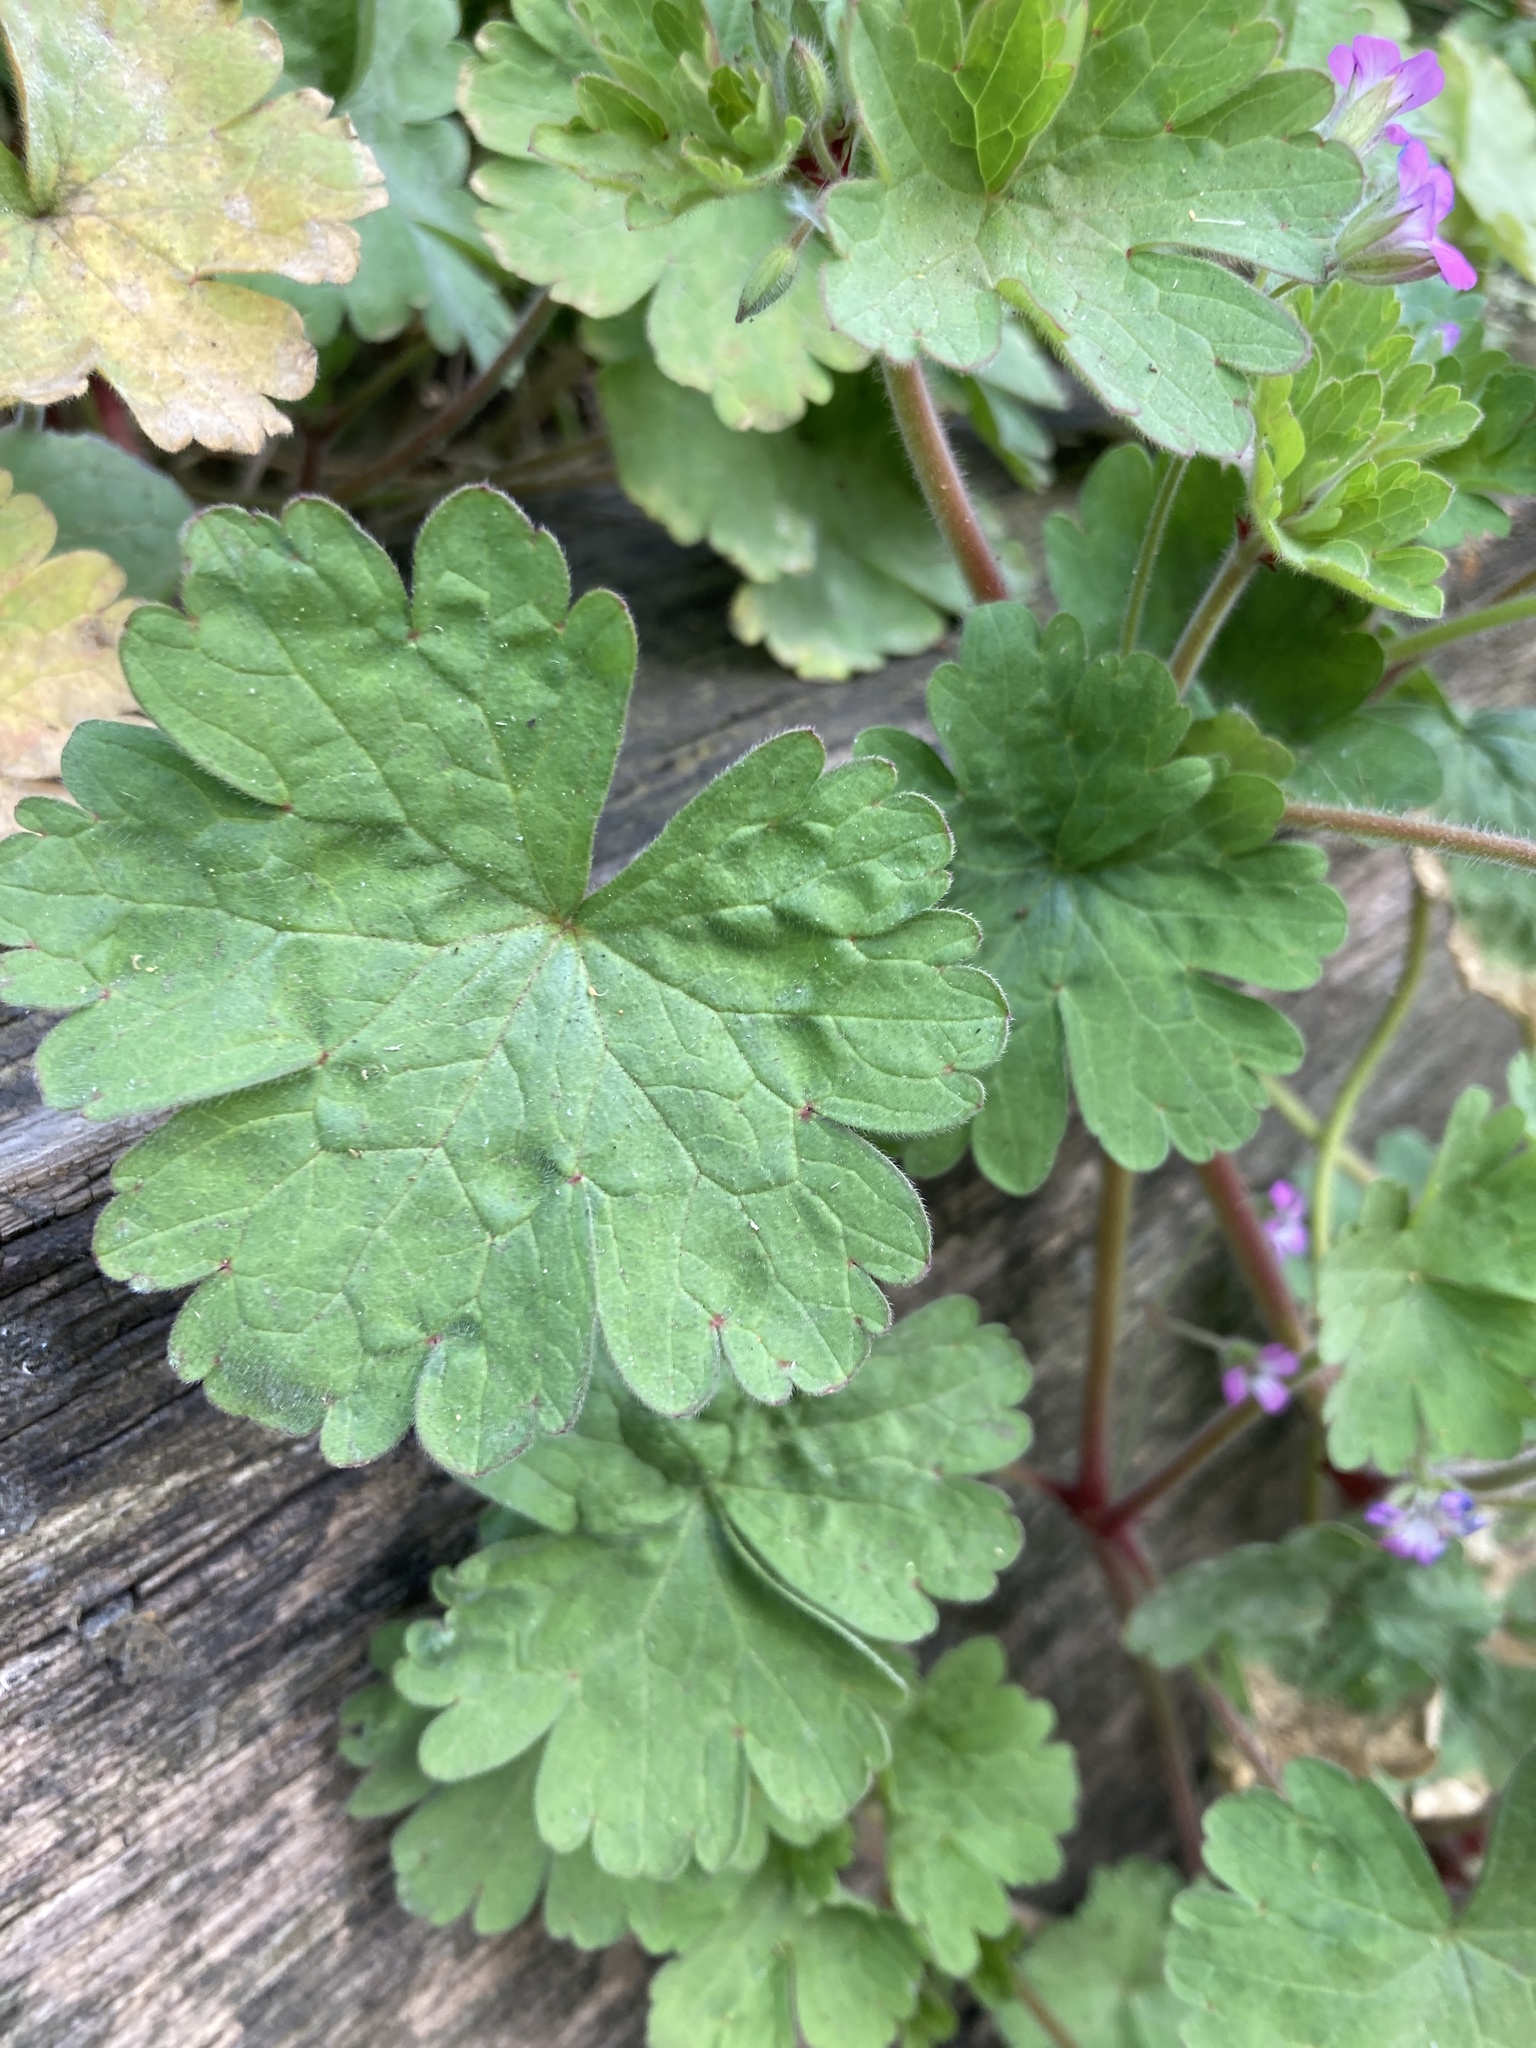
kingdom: Plantae
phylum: Tracheophyta
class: Magnoliopsida
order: Geraniales
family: Geraniaceae
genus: Geranium
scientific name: Geranium rotundifolium
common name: Round-leaved crane's-bill
